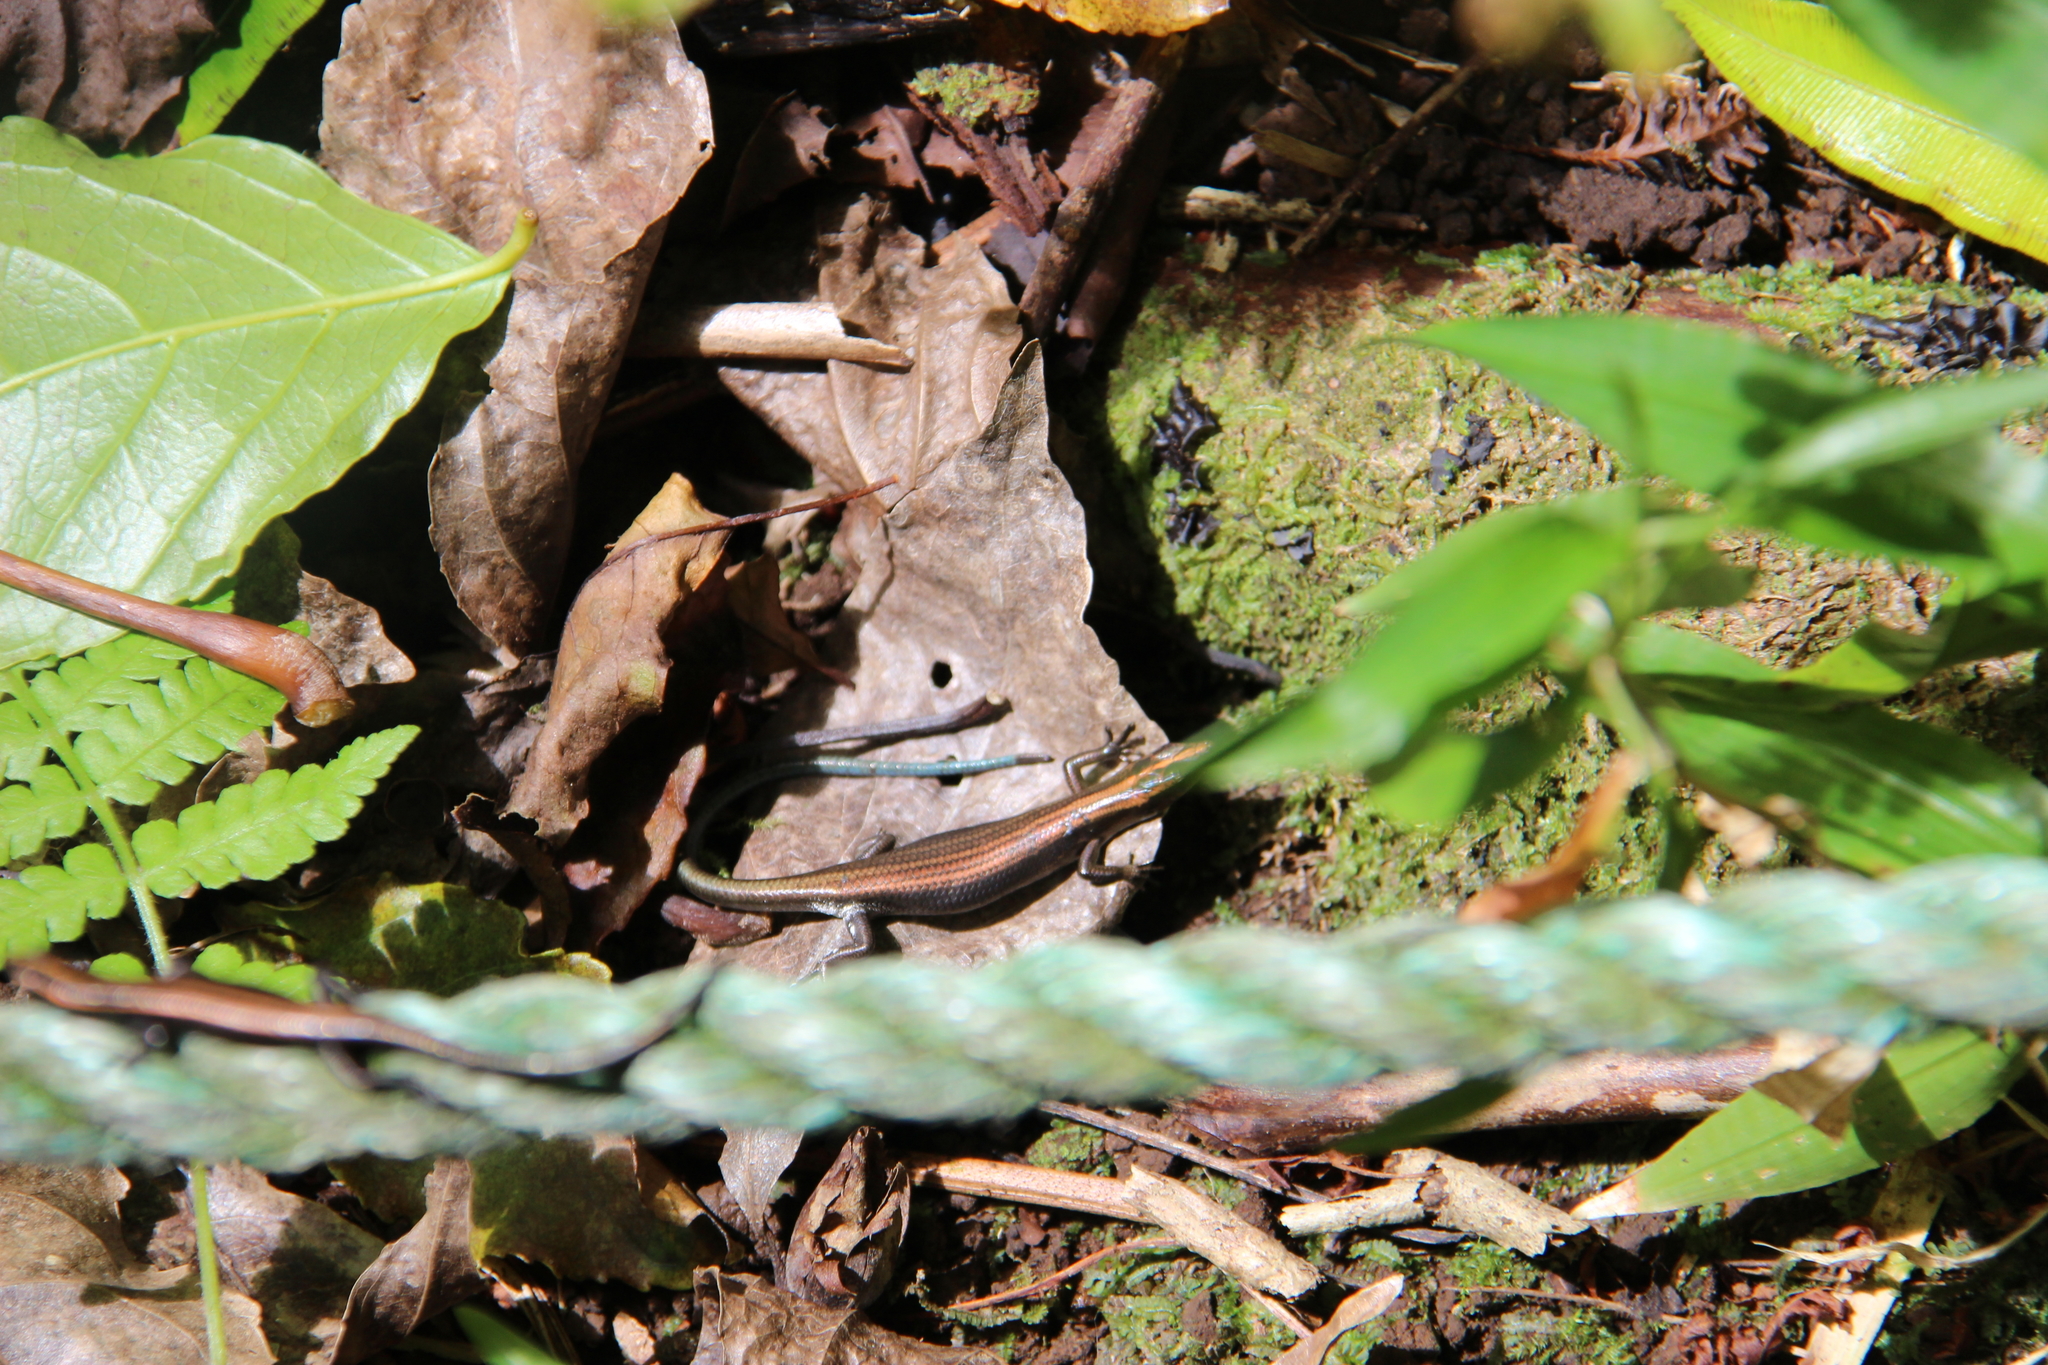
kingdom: Animalia
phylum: Chordata
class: Squamata
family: Scincidae
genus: Emoia
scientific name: Emoia impar
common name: Azure-tailed skink
